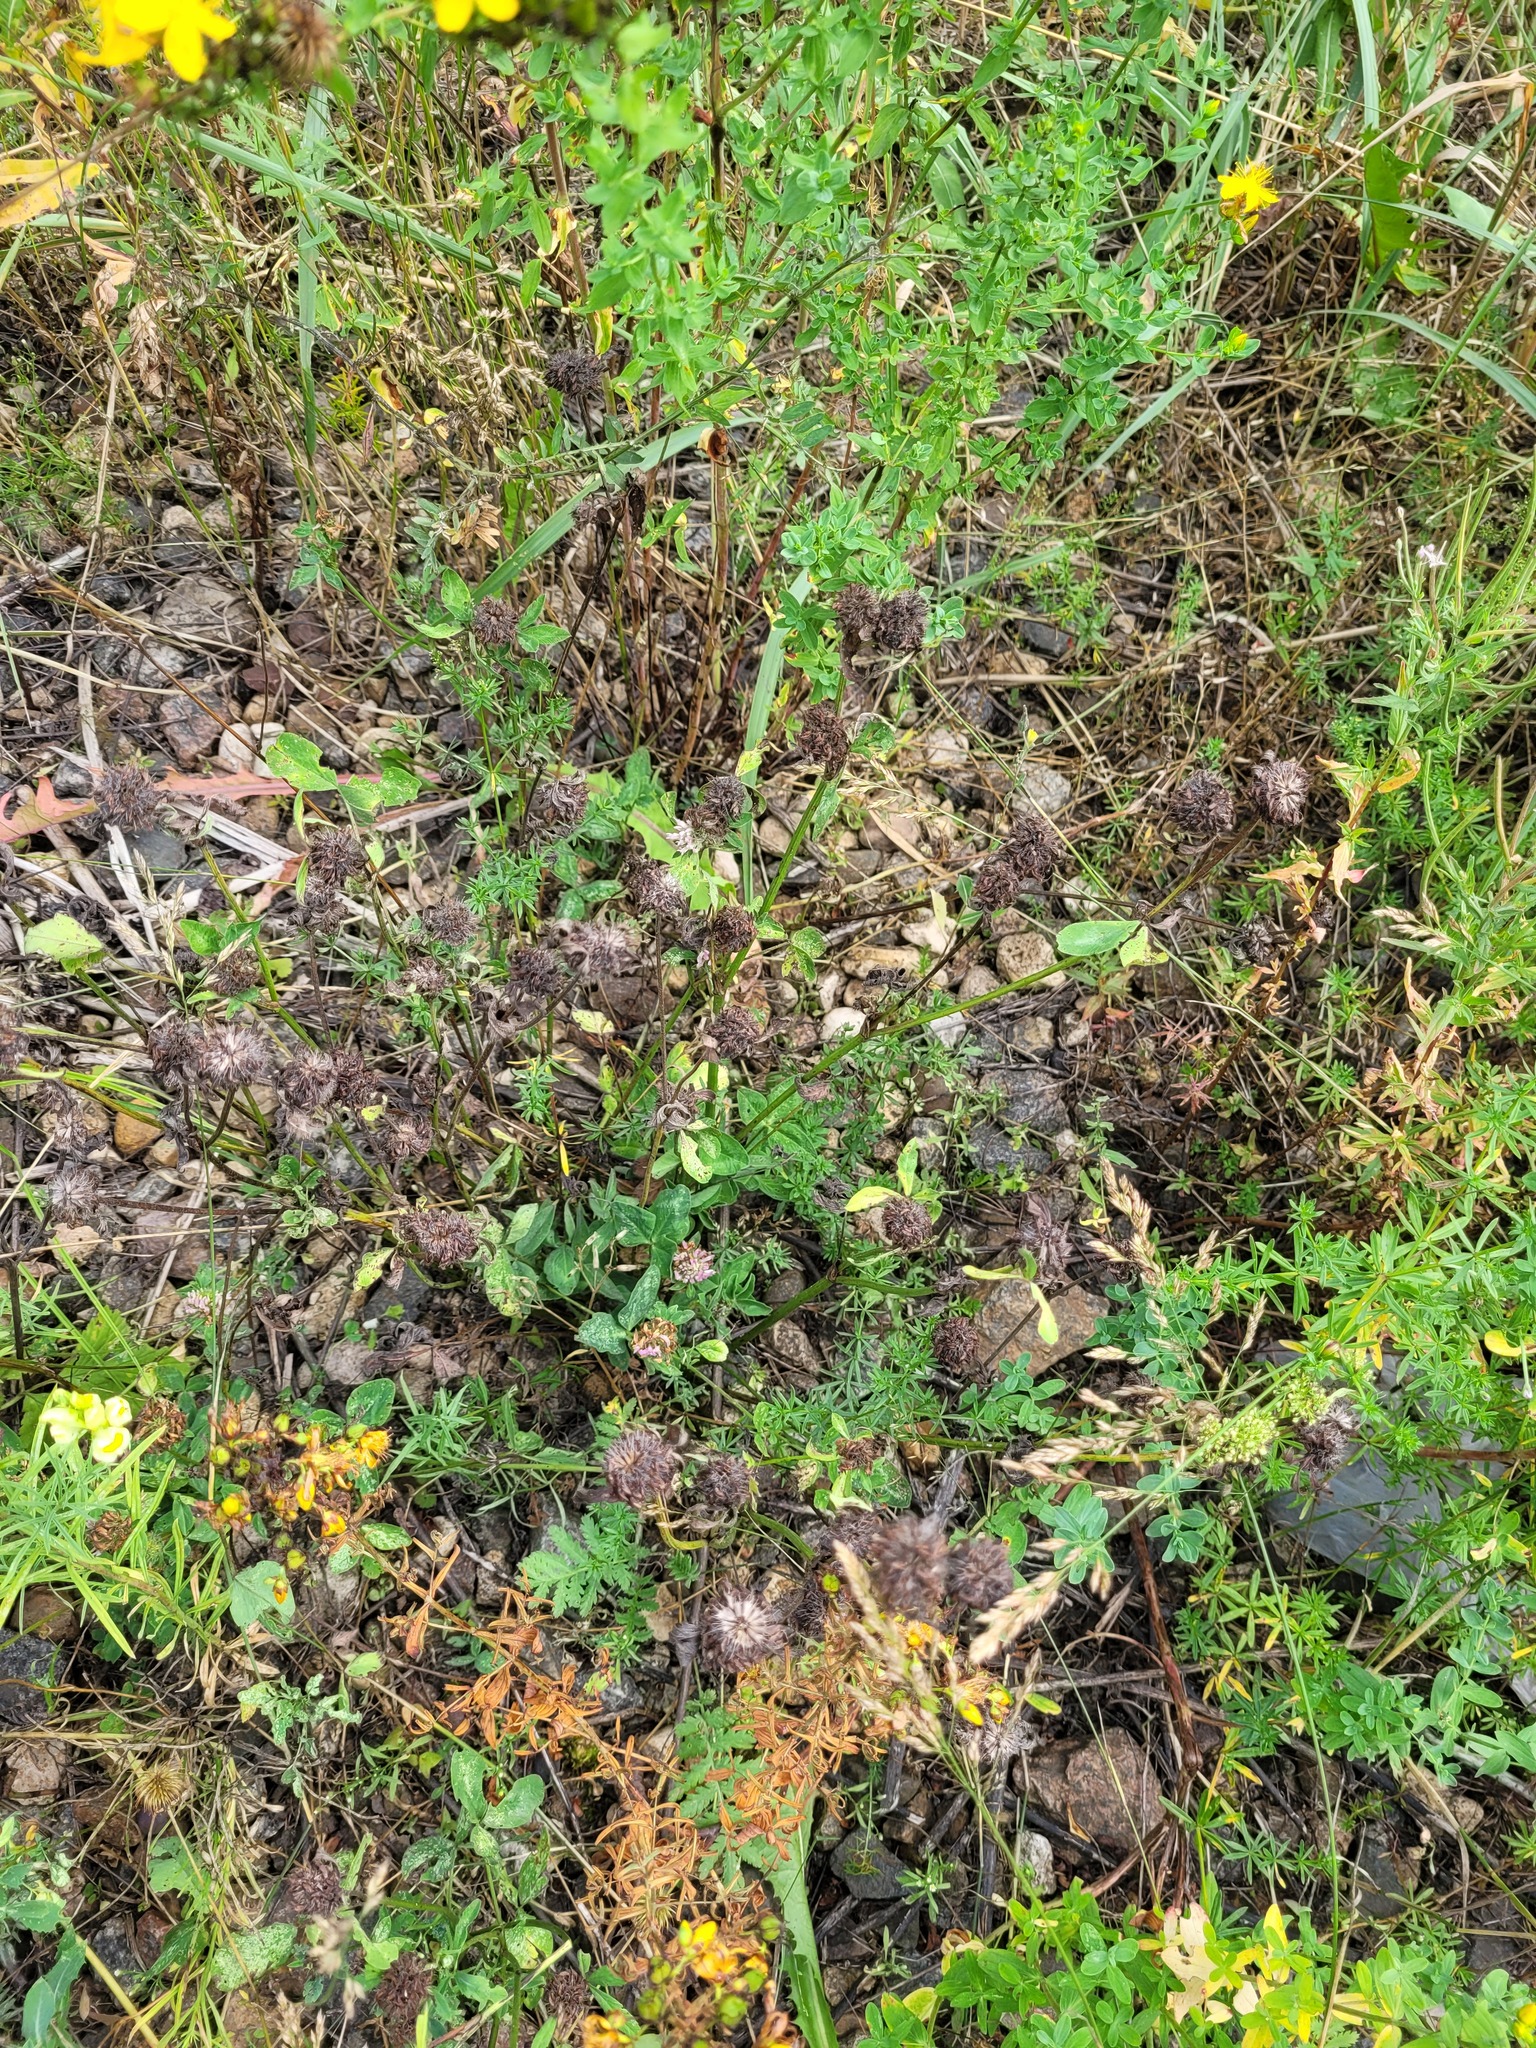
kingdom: Plantae
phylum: Tracheophyta
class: Magnoliopsida
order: Fabales
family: Fabaceae
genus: Trifolium
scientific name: Trifolium pratense
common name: Red clover
